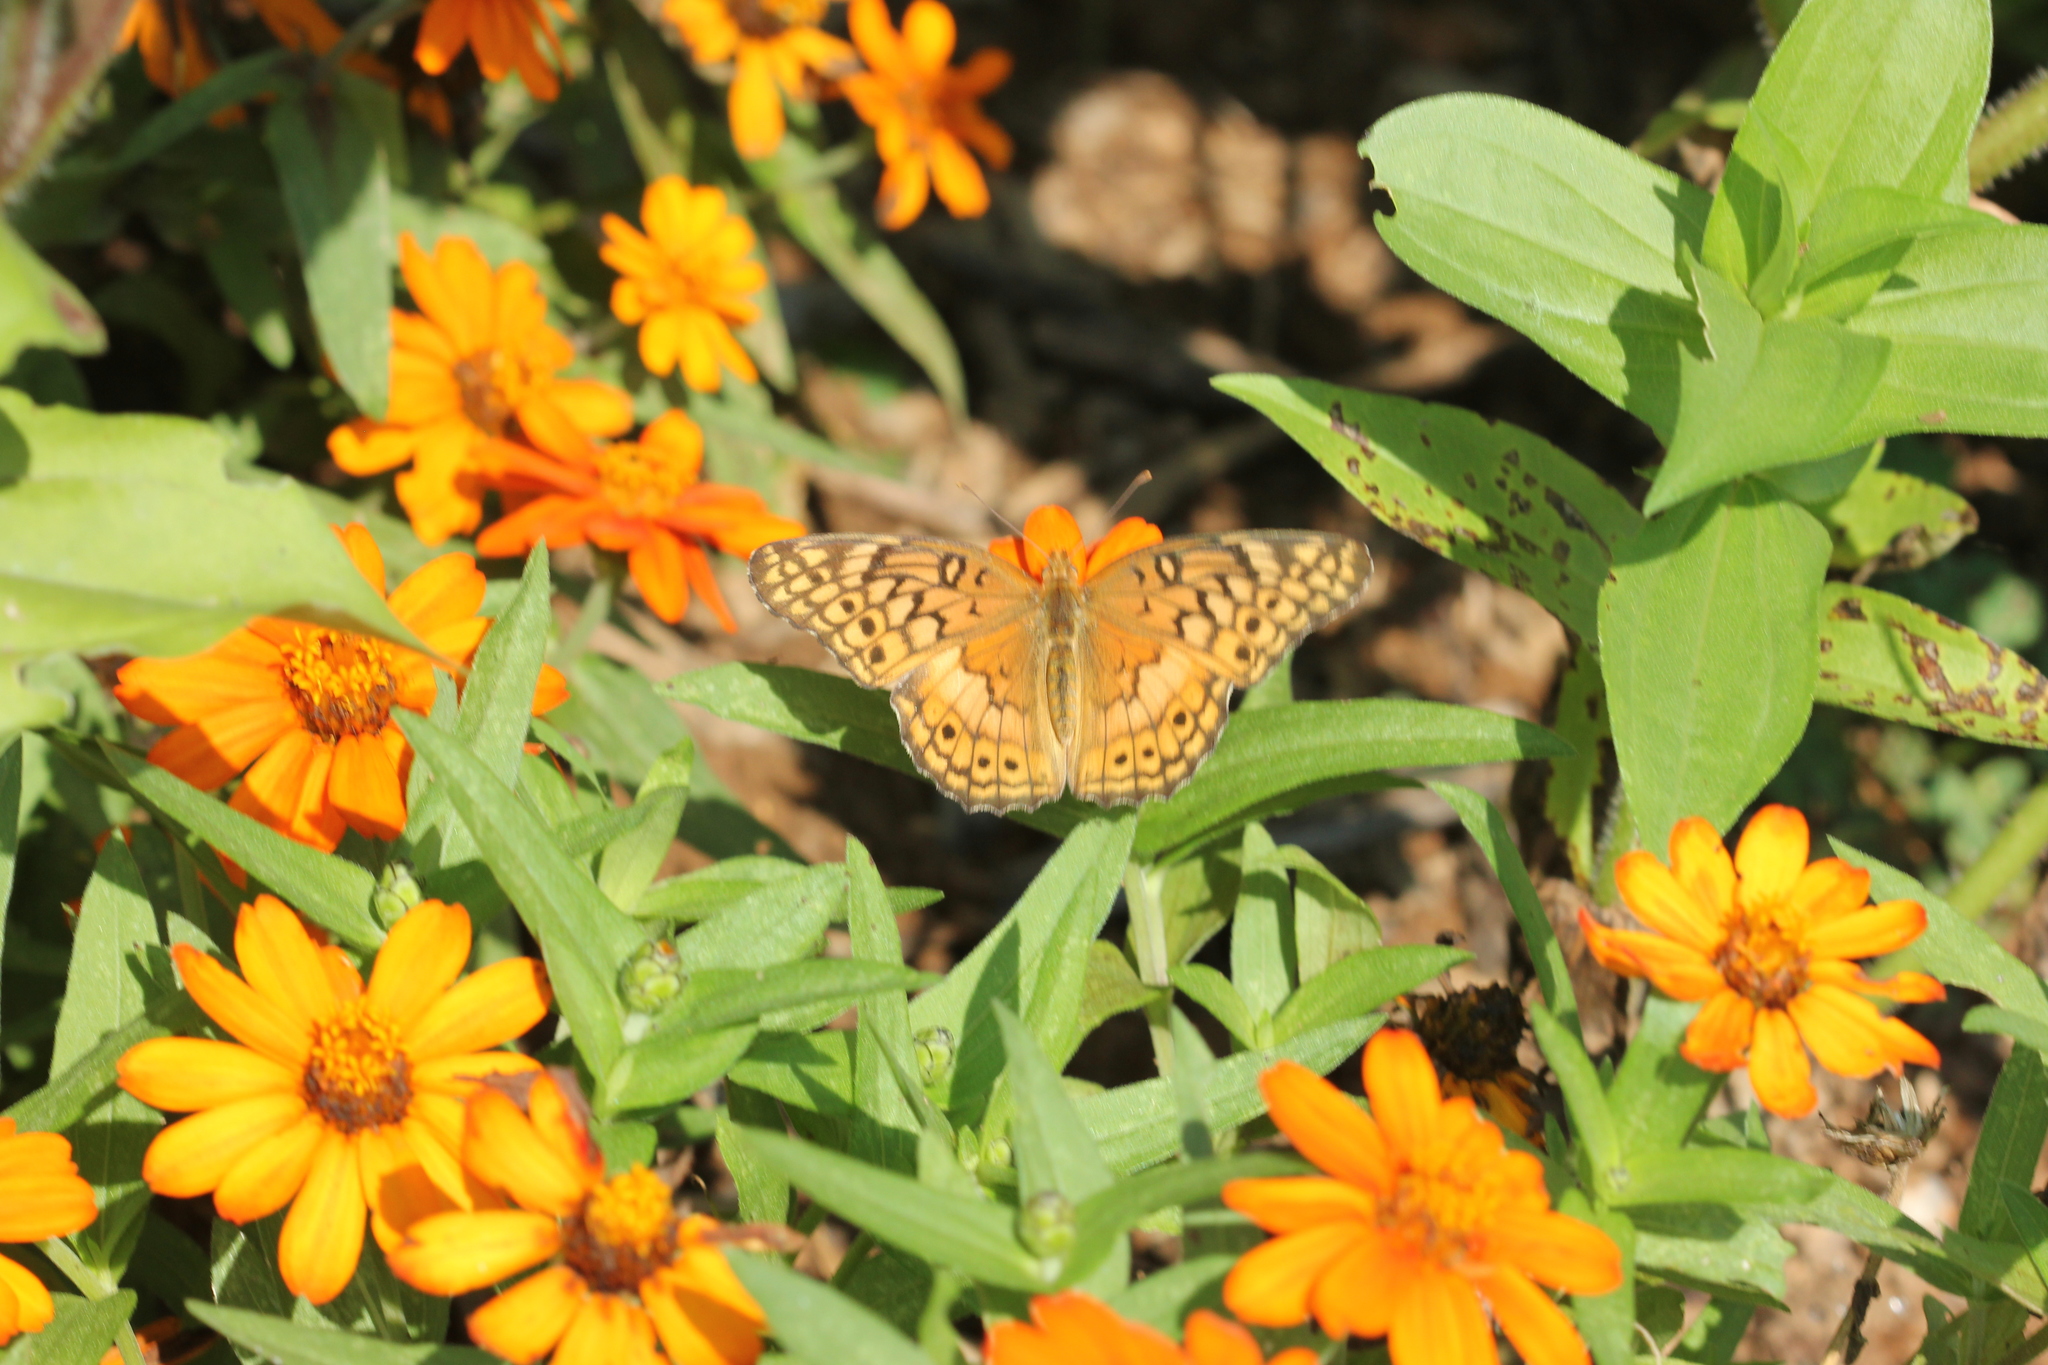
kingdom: Animalia
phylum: Arthropoda
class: Insecta
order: Lepidoptera
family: Nymphalidae
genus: Euptoieta
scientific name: Euptoieta claudia
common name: Variegated fritillary
